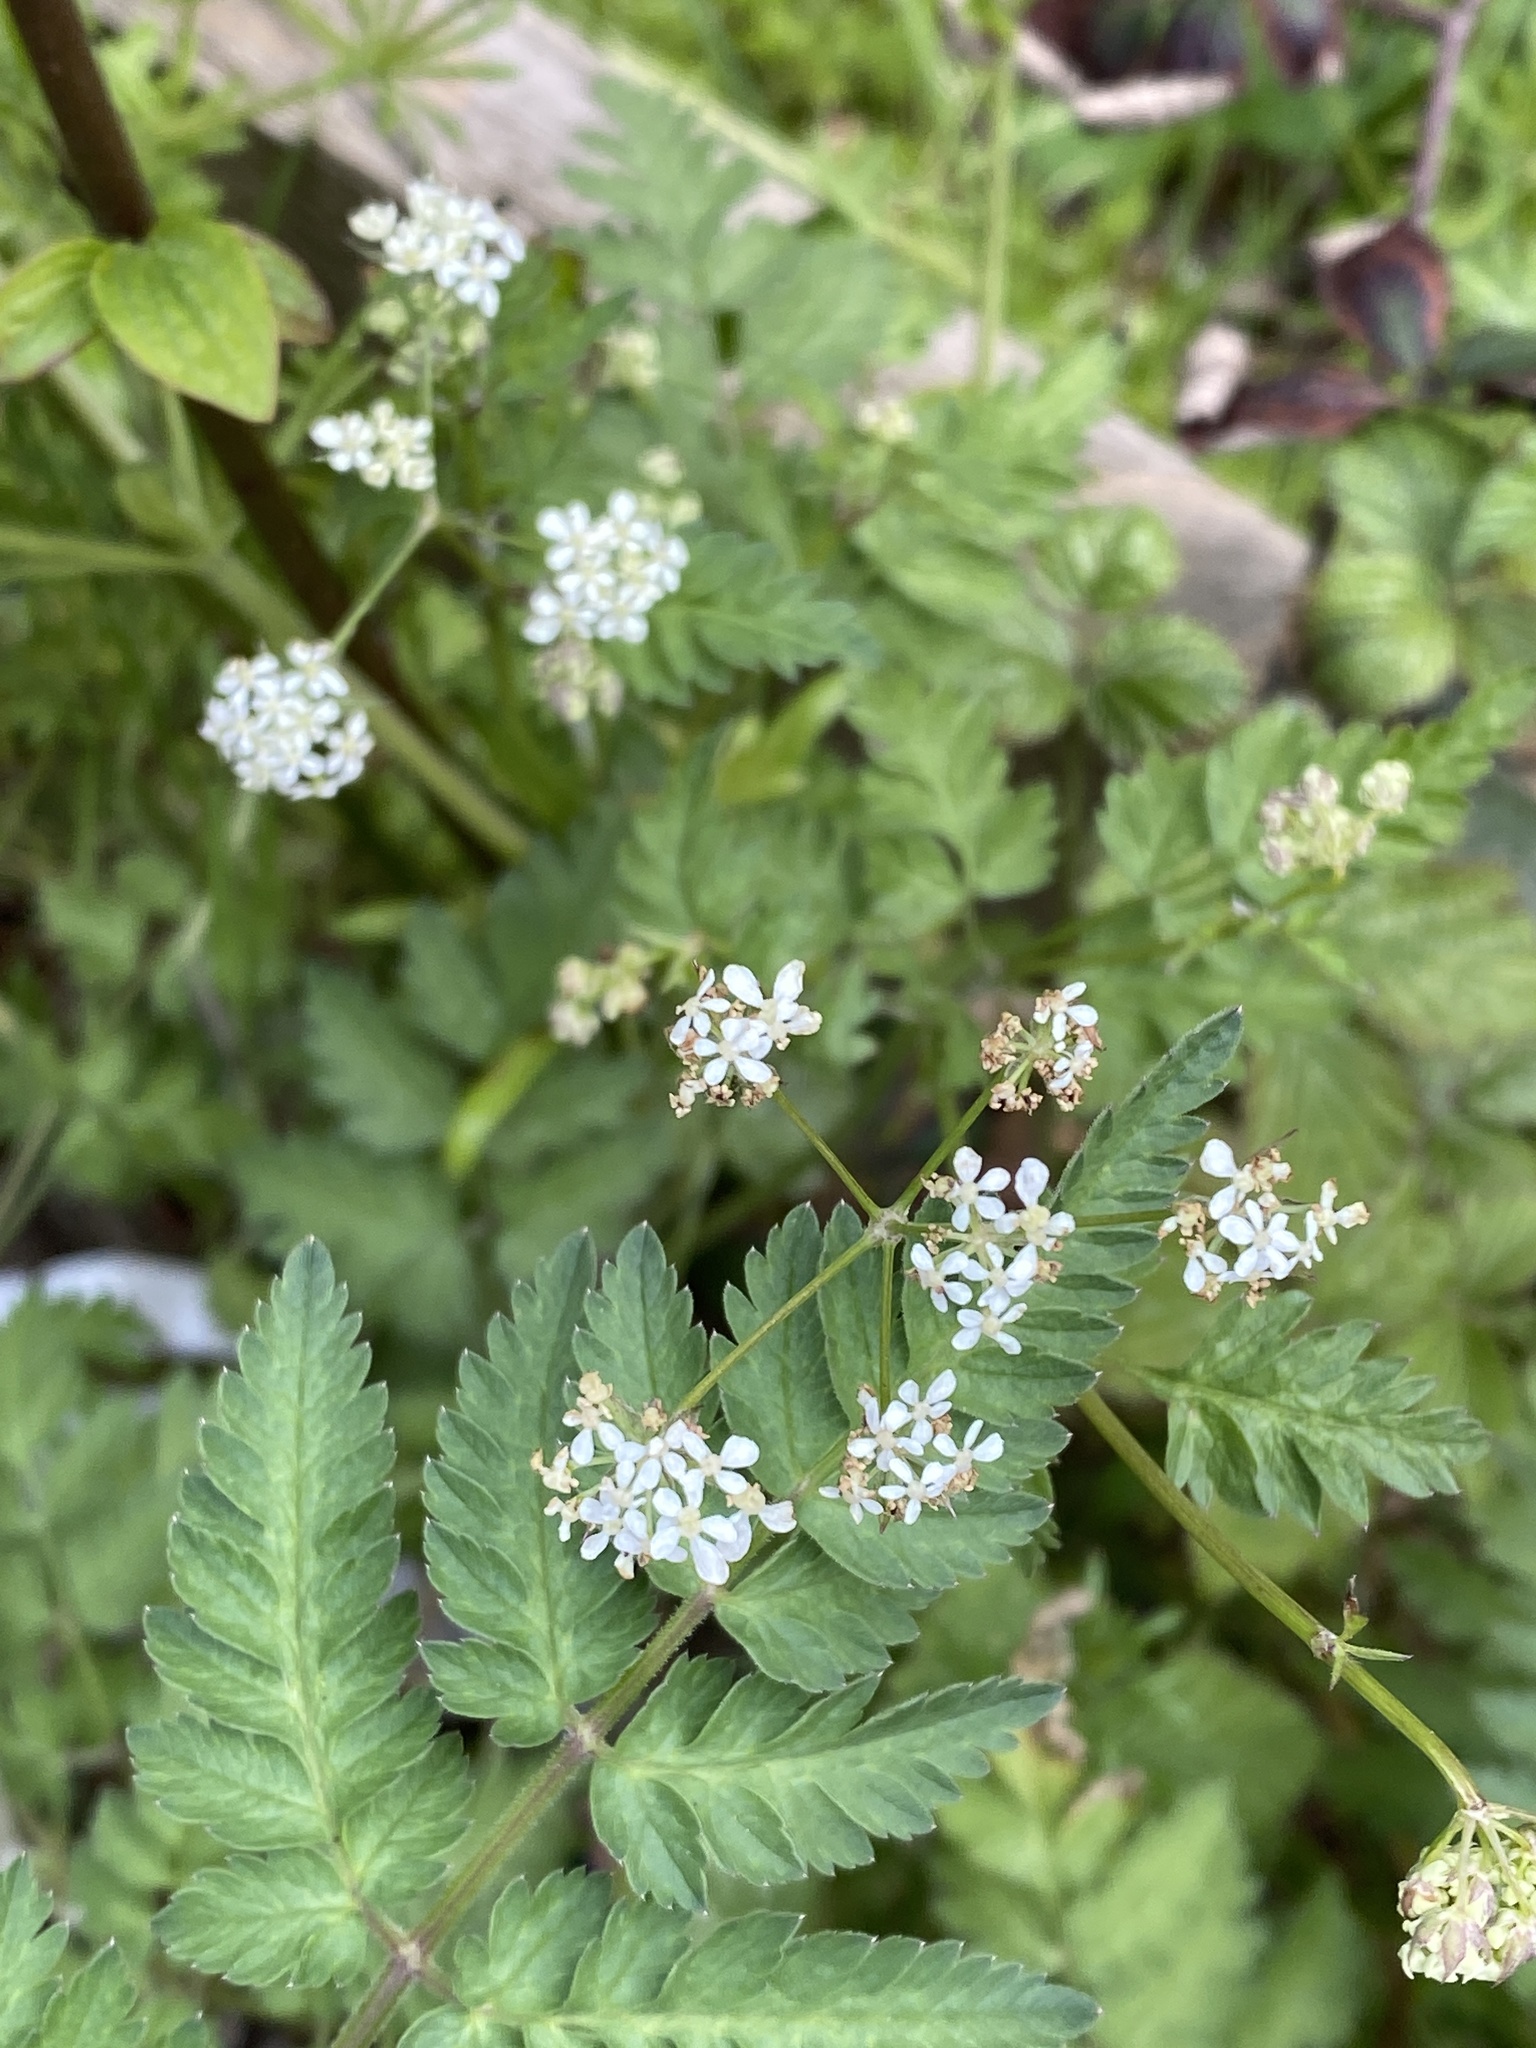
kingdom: Plantae
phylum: Tracheophyta
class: Magnoliopsida
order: Apiales
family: Apiaceae
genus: Anthriscus
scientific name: Anthriscus sylvestris
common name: Cow parsley
